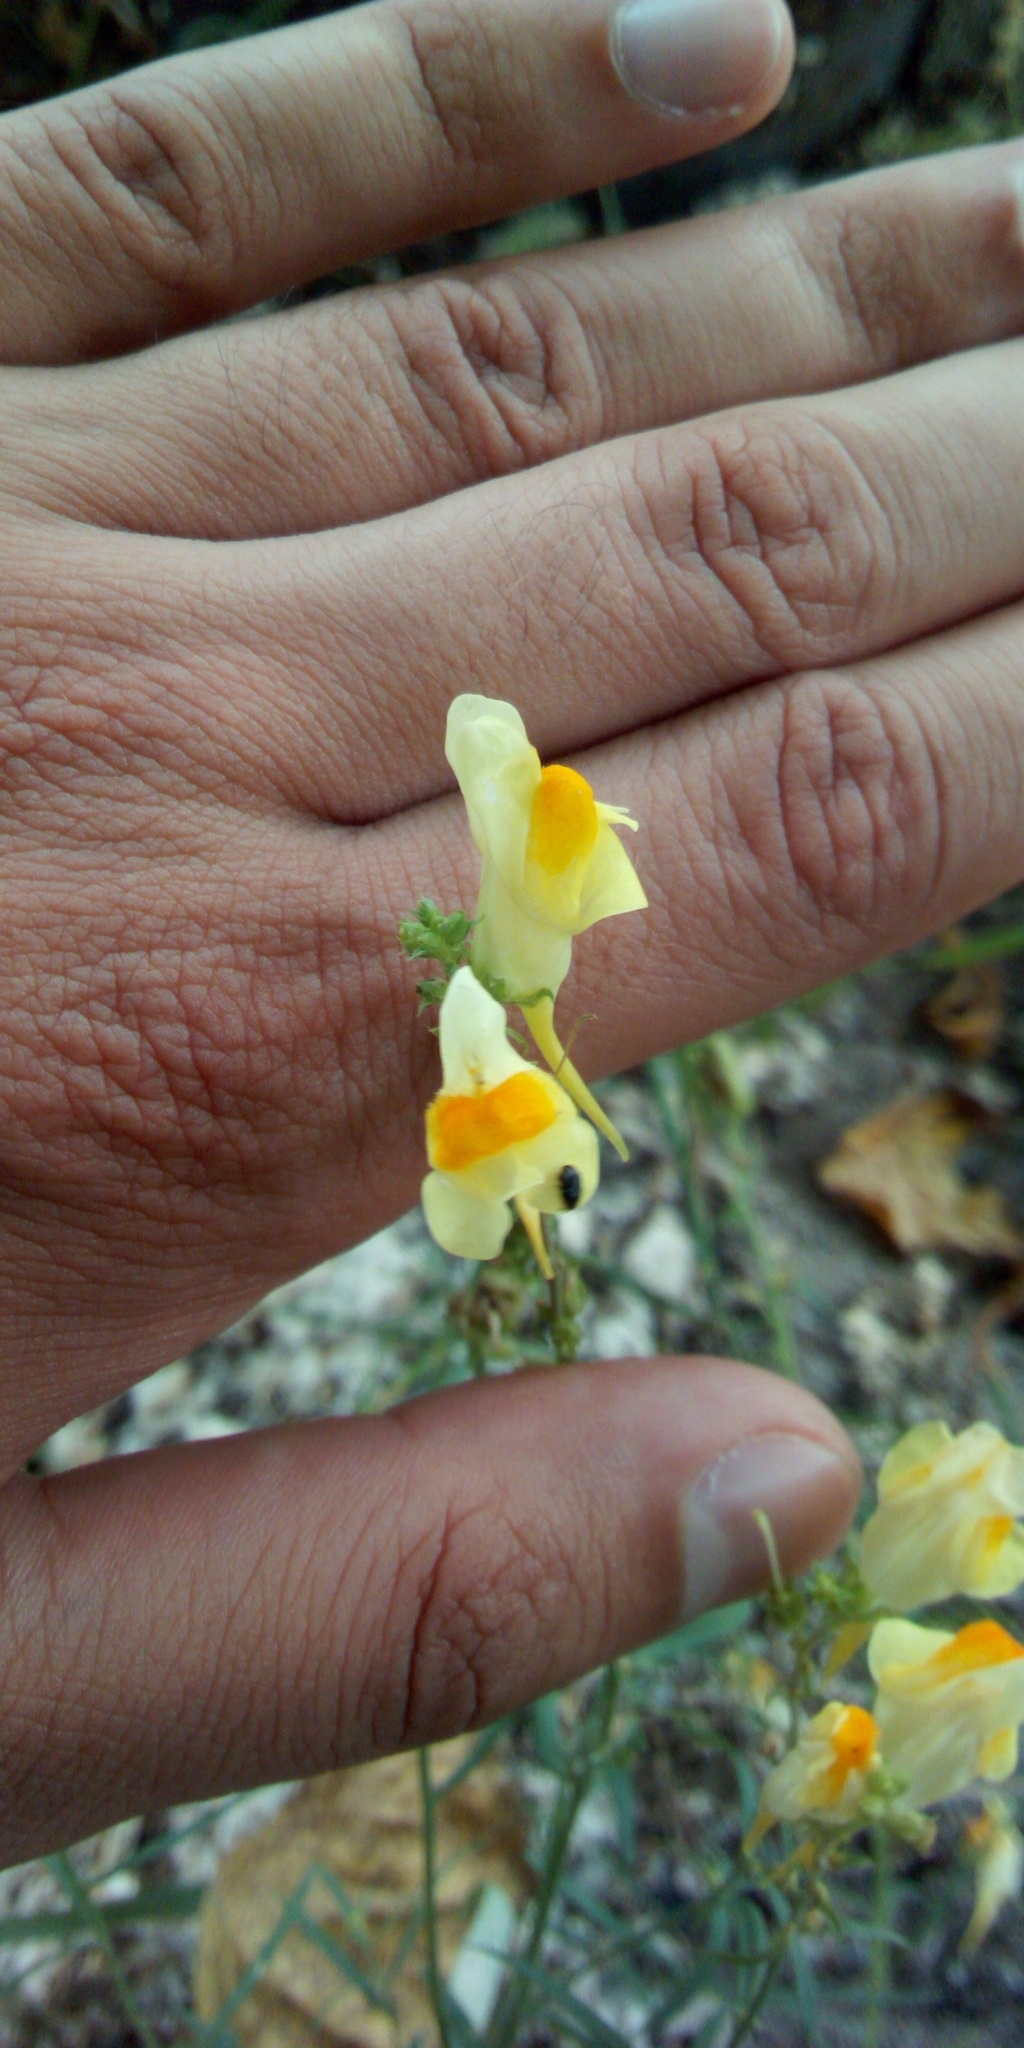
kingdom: Plantae
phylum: Tracheophyta
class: Magnoliopsida
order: Lamiales
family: Plantaginaceae
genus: Linaria
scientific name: Linaria vulgaris
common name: Butter and eggs
